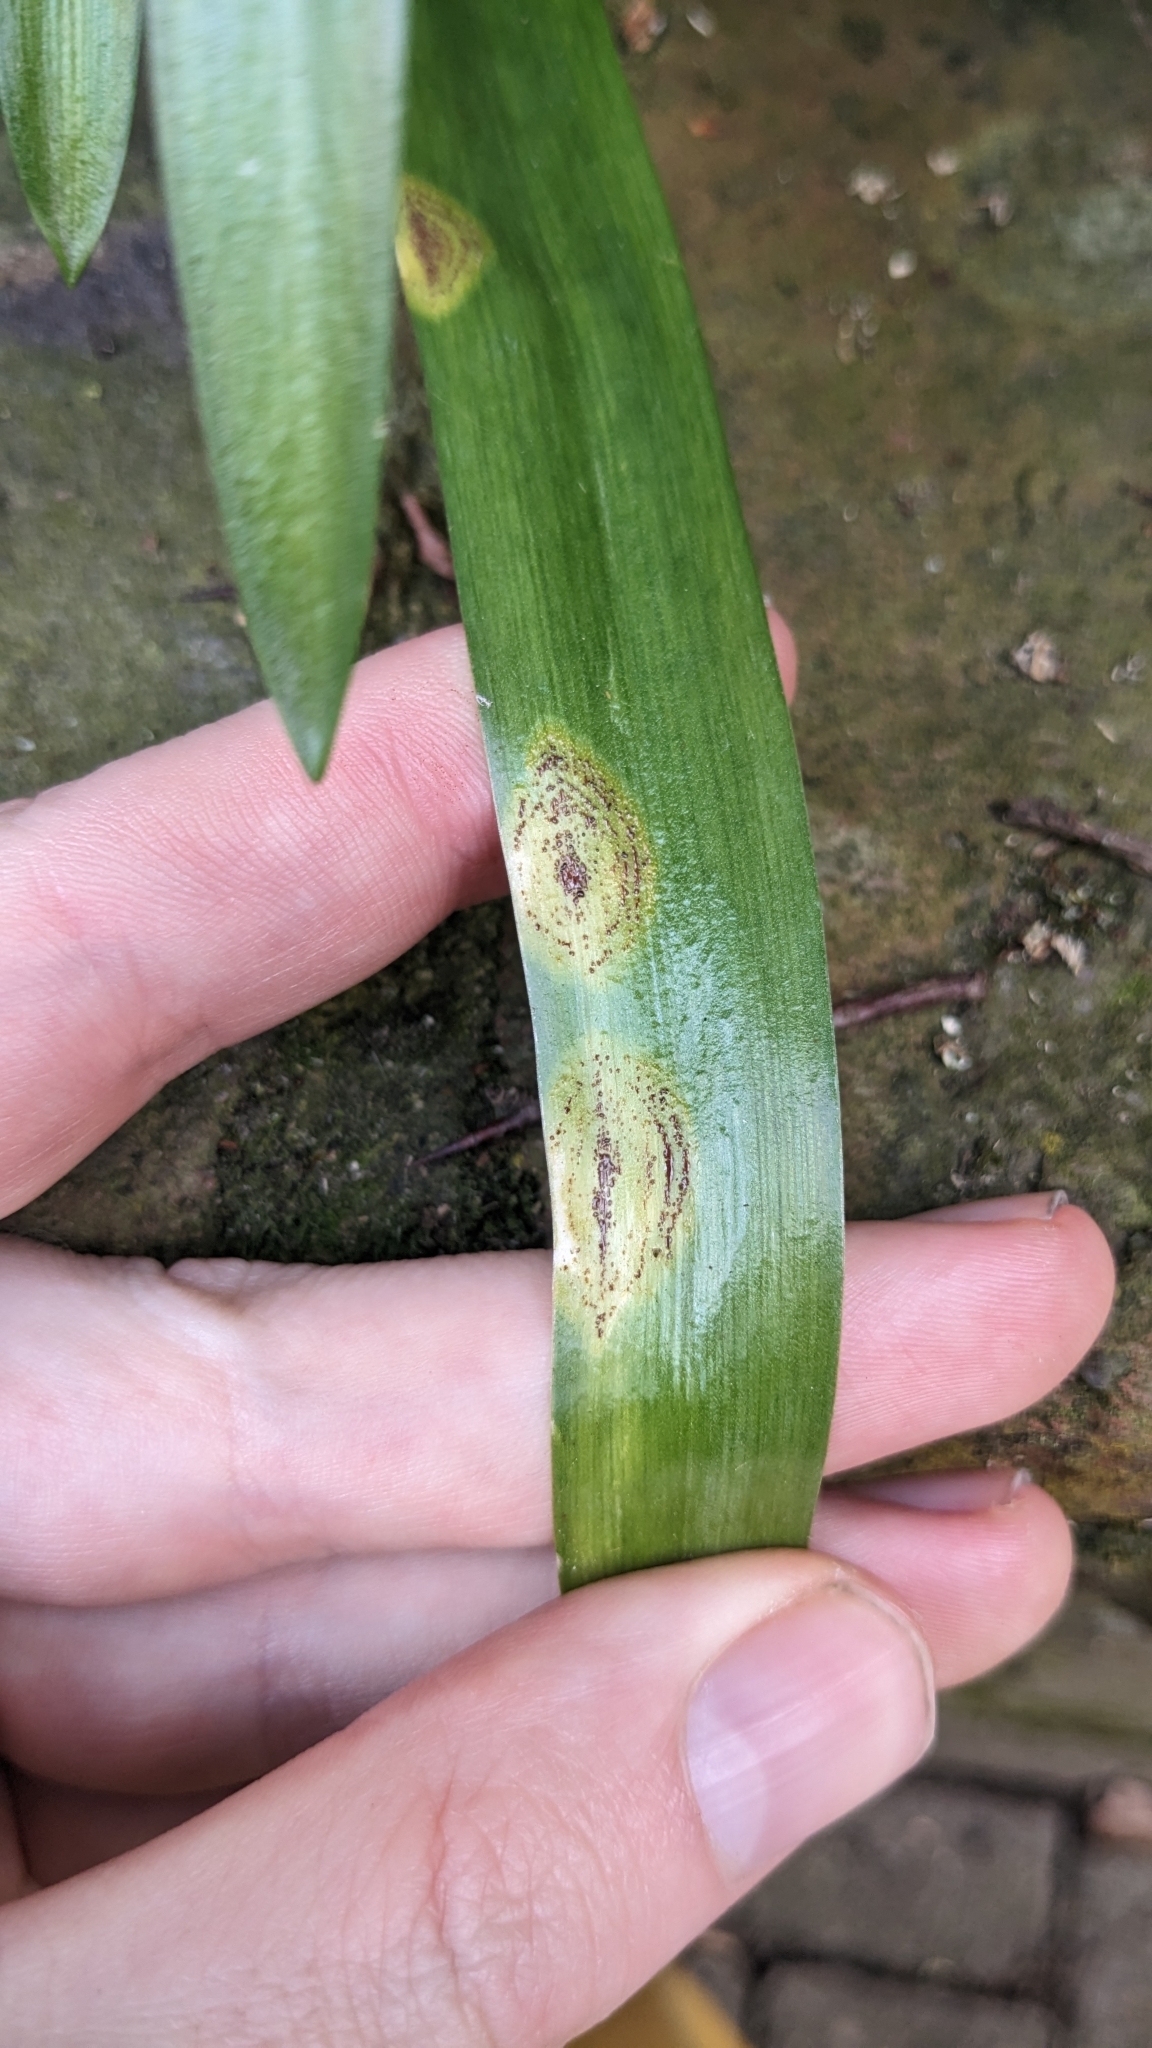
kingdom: Fungi
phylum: Basidiomycota
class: Pucciniomycetes
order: Pucciniales
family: Pucciniaceae
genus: Uromyces
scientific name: Uromyces hyacinthi
